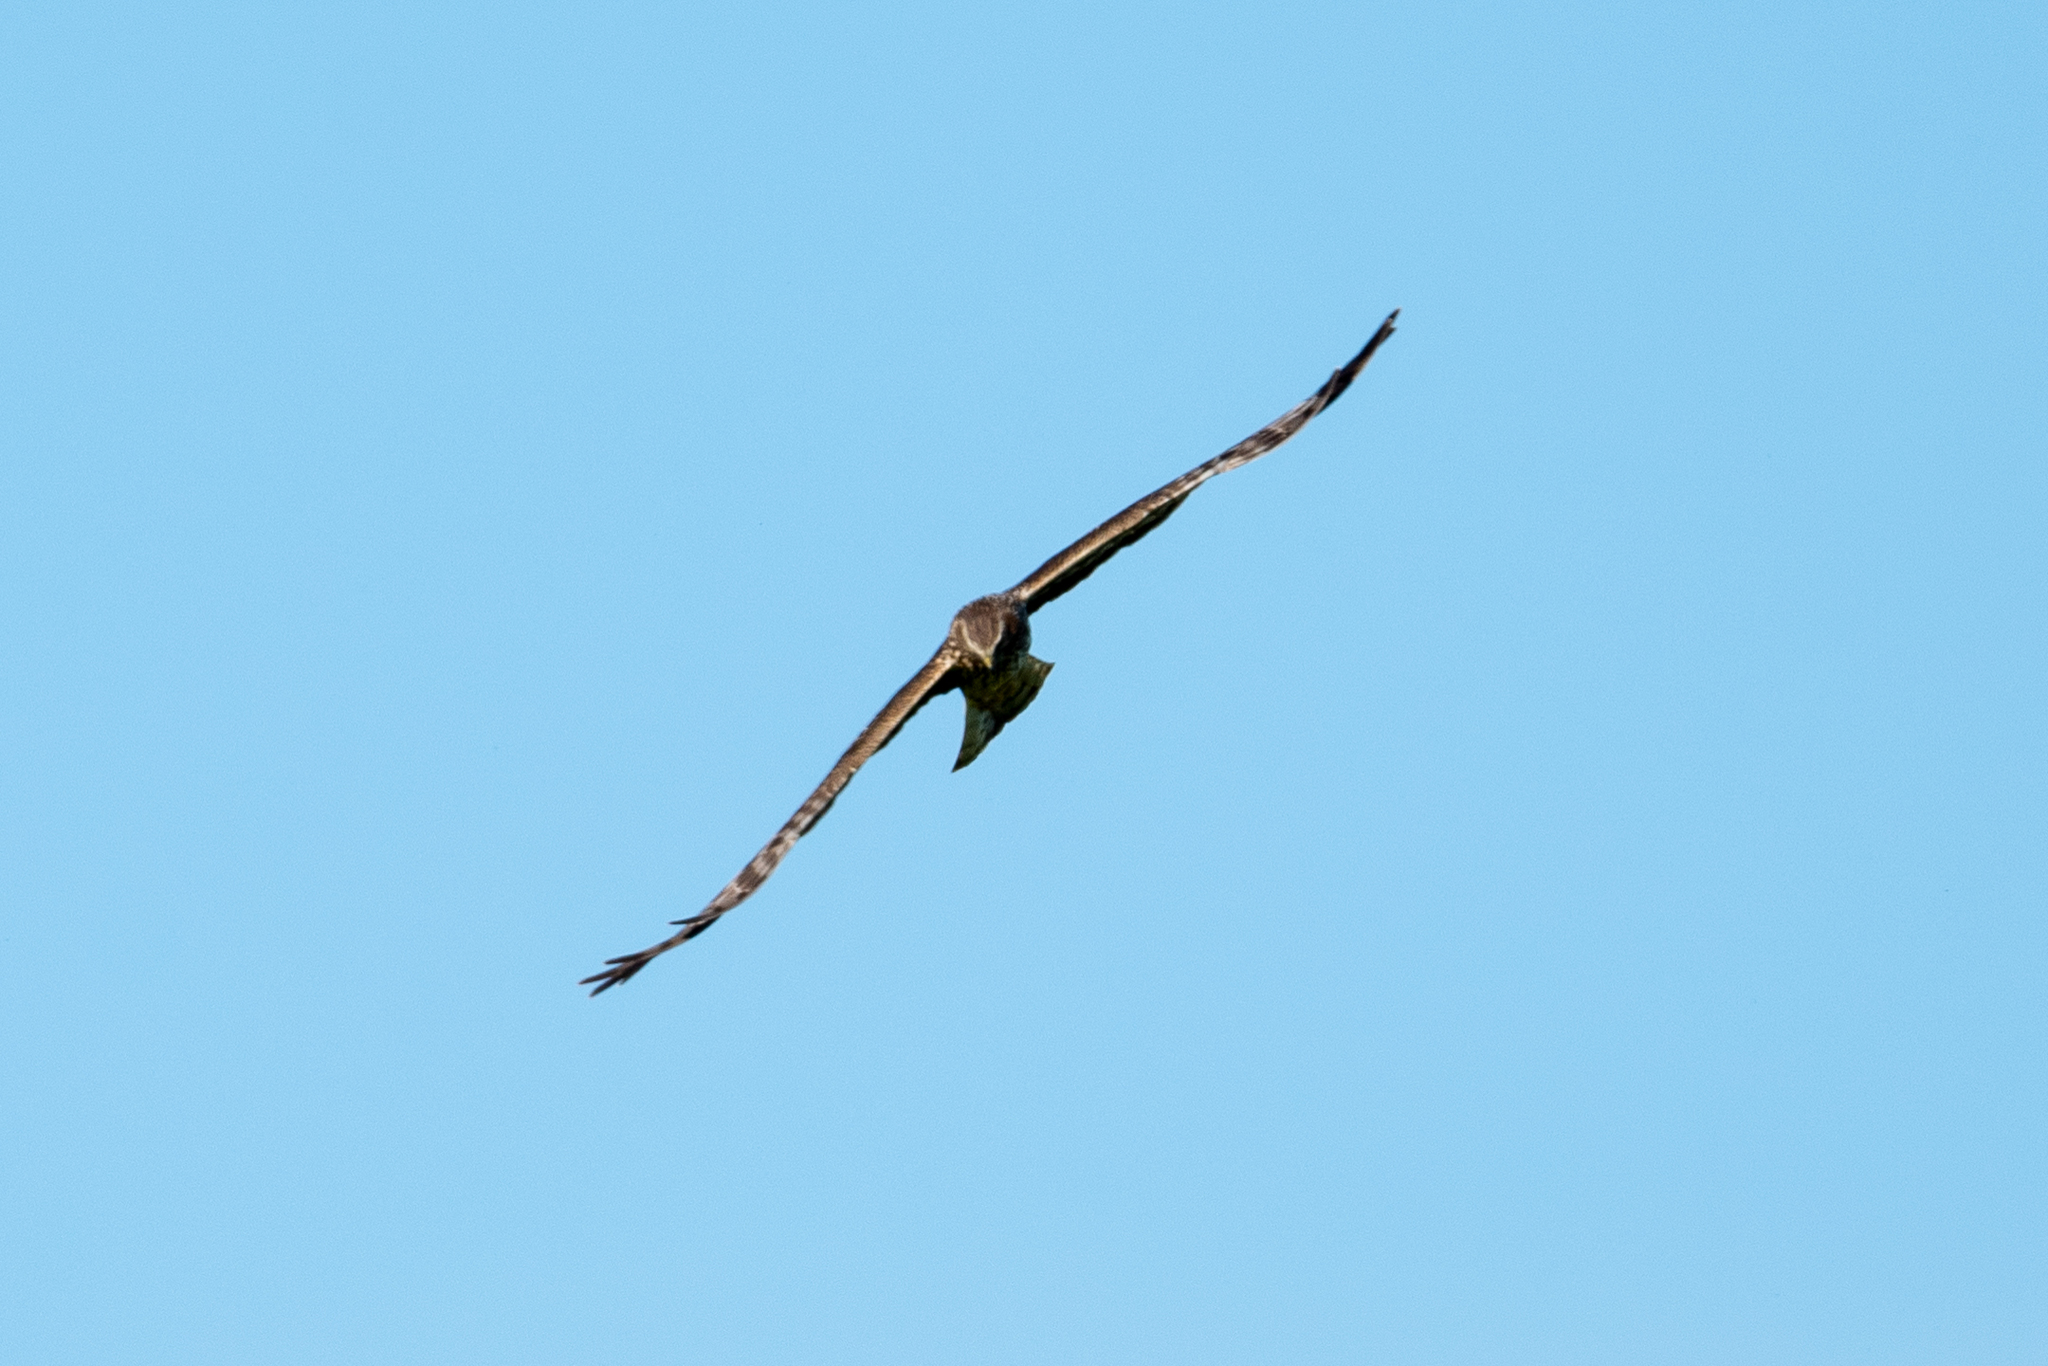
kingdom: Animalia
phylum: Chordata
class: Aves
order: Accipitriformes
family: Accipitridae
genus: Circus
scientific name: Circus cyaneus
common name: Hen harrier
